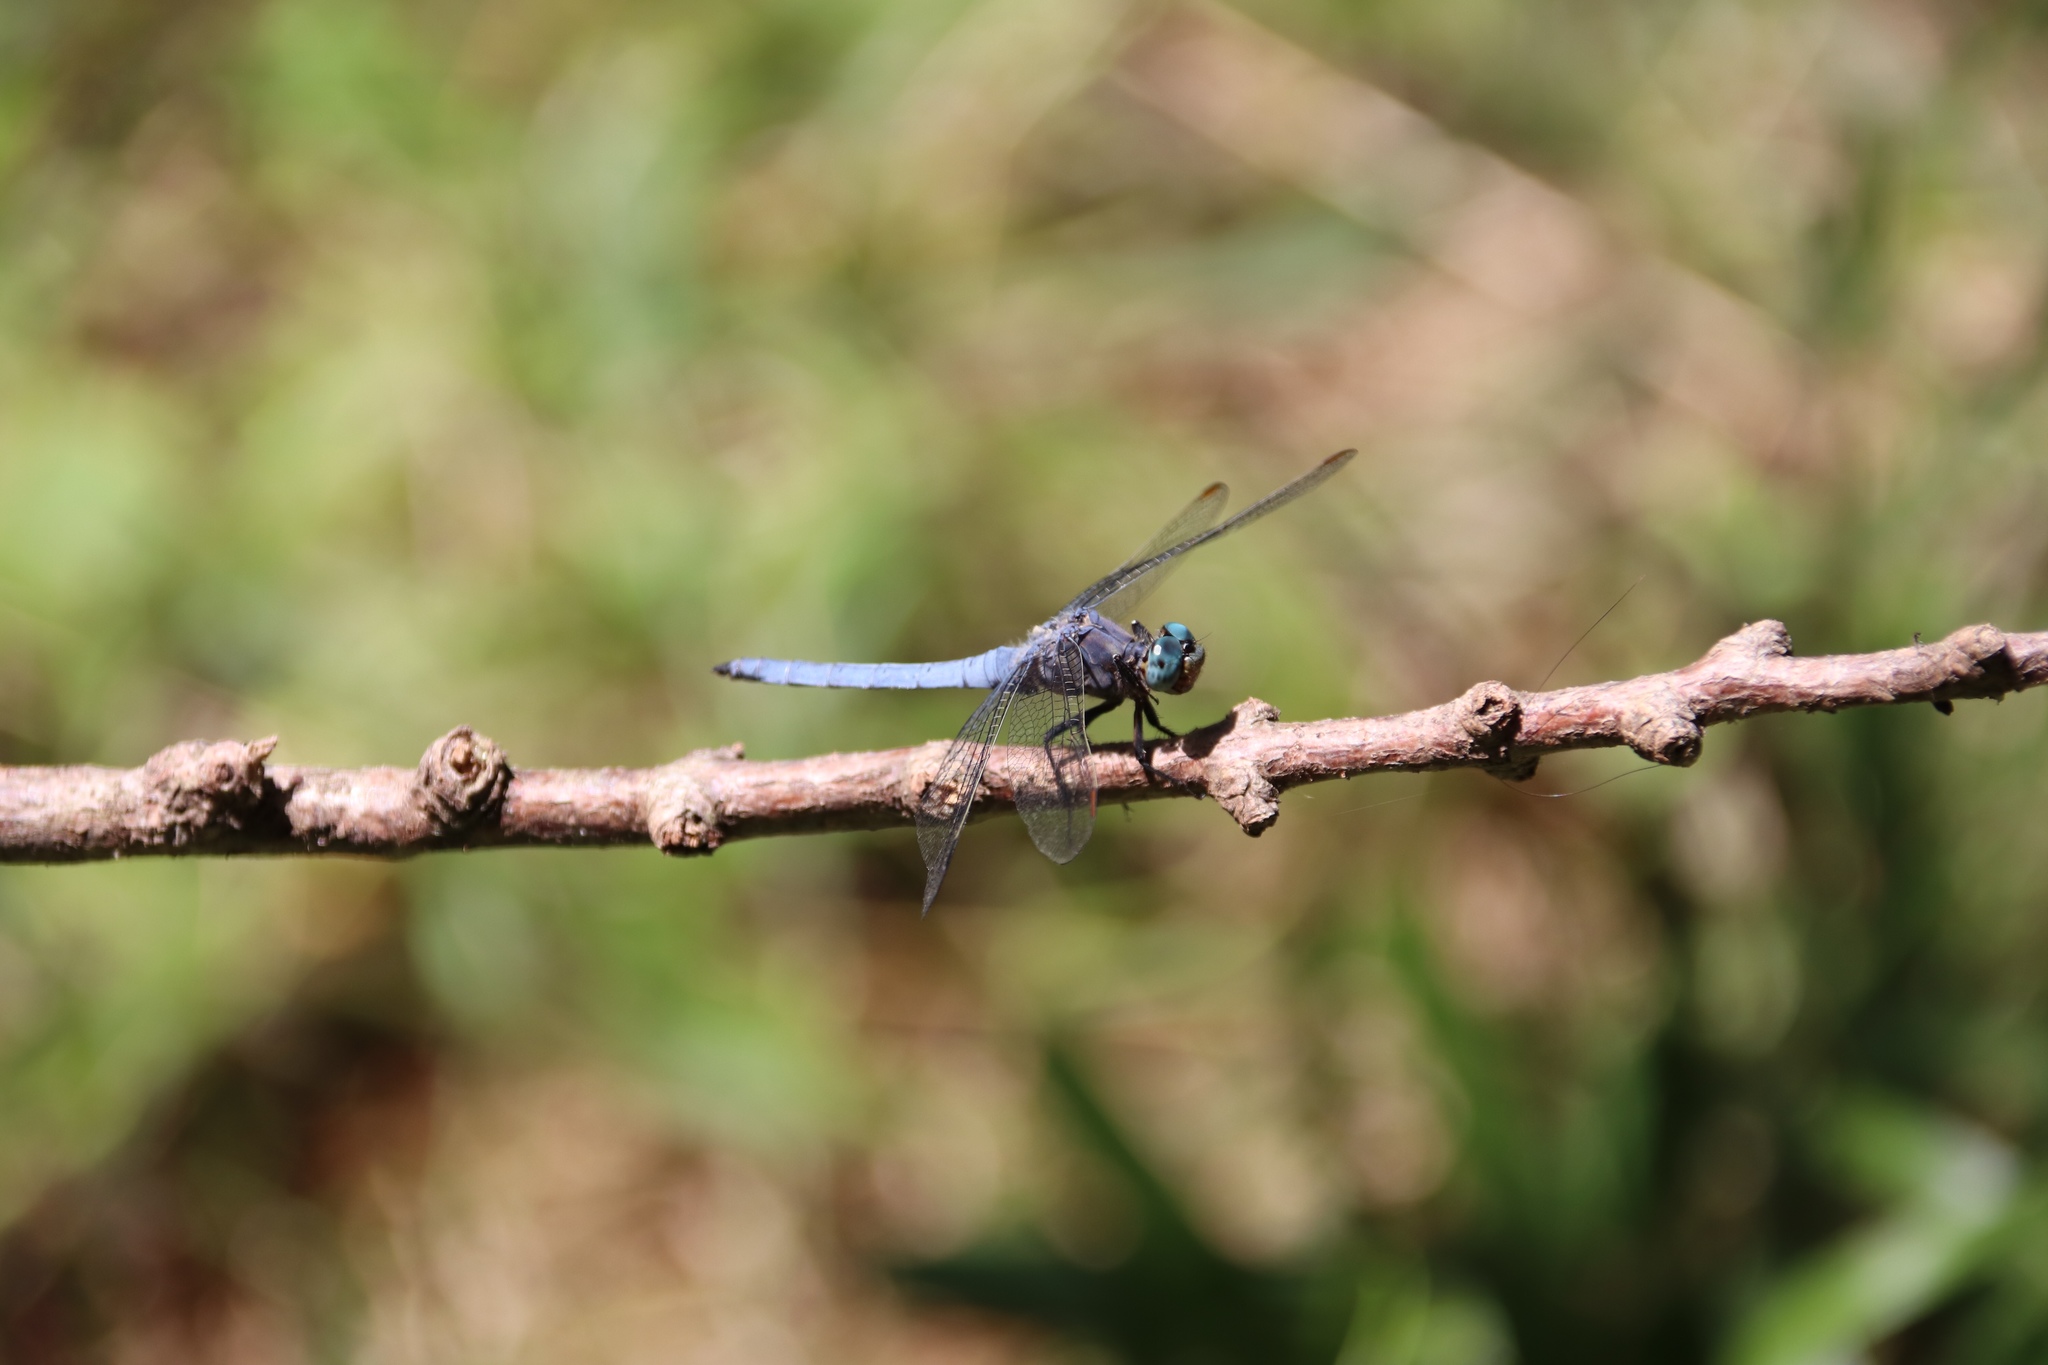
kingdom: Animalia
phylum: Arthropoda
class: Insecta
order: Odonata
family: Libellulidae
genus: Orthetrum
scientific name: Orthetrum coerulescens
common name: Keeled skimmer
